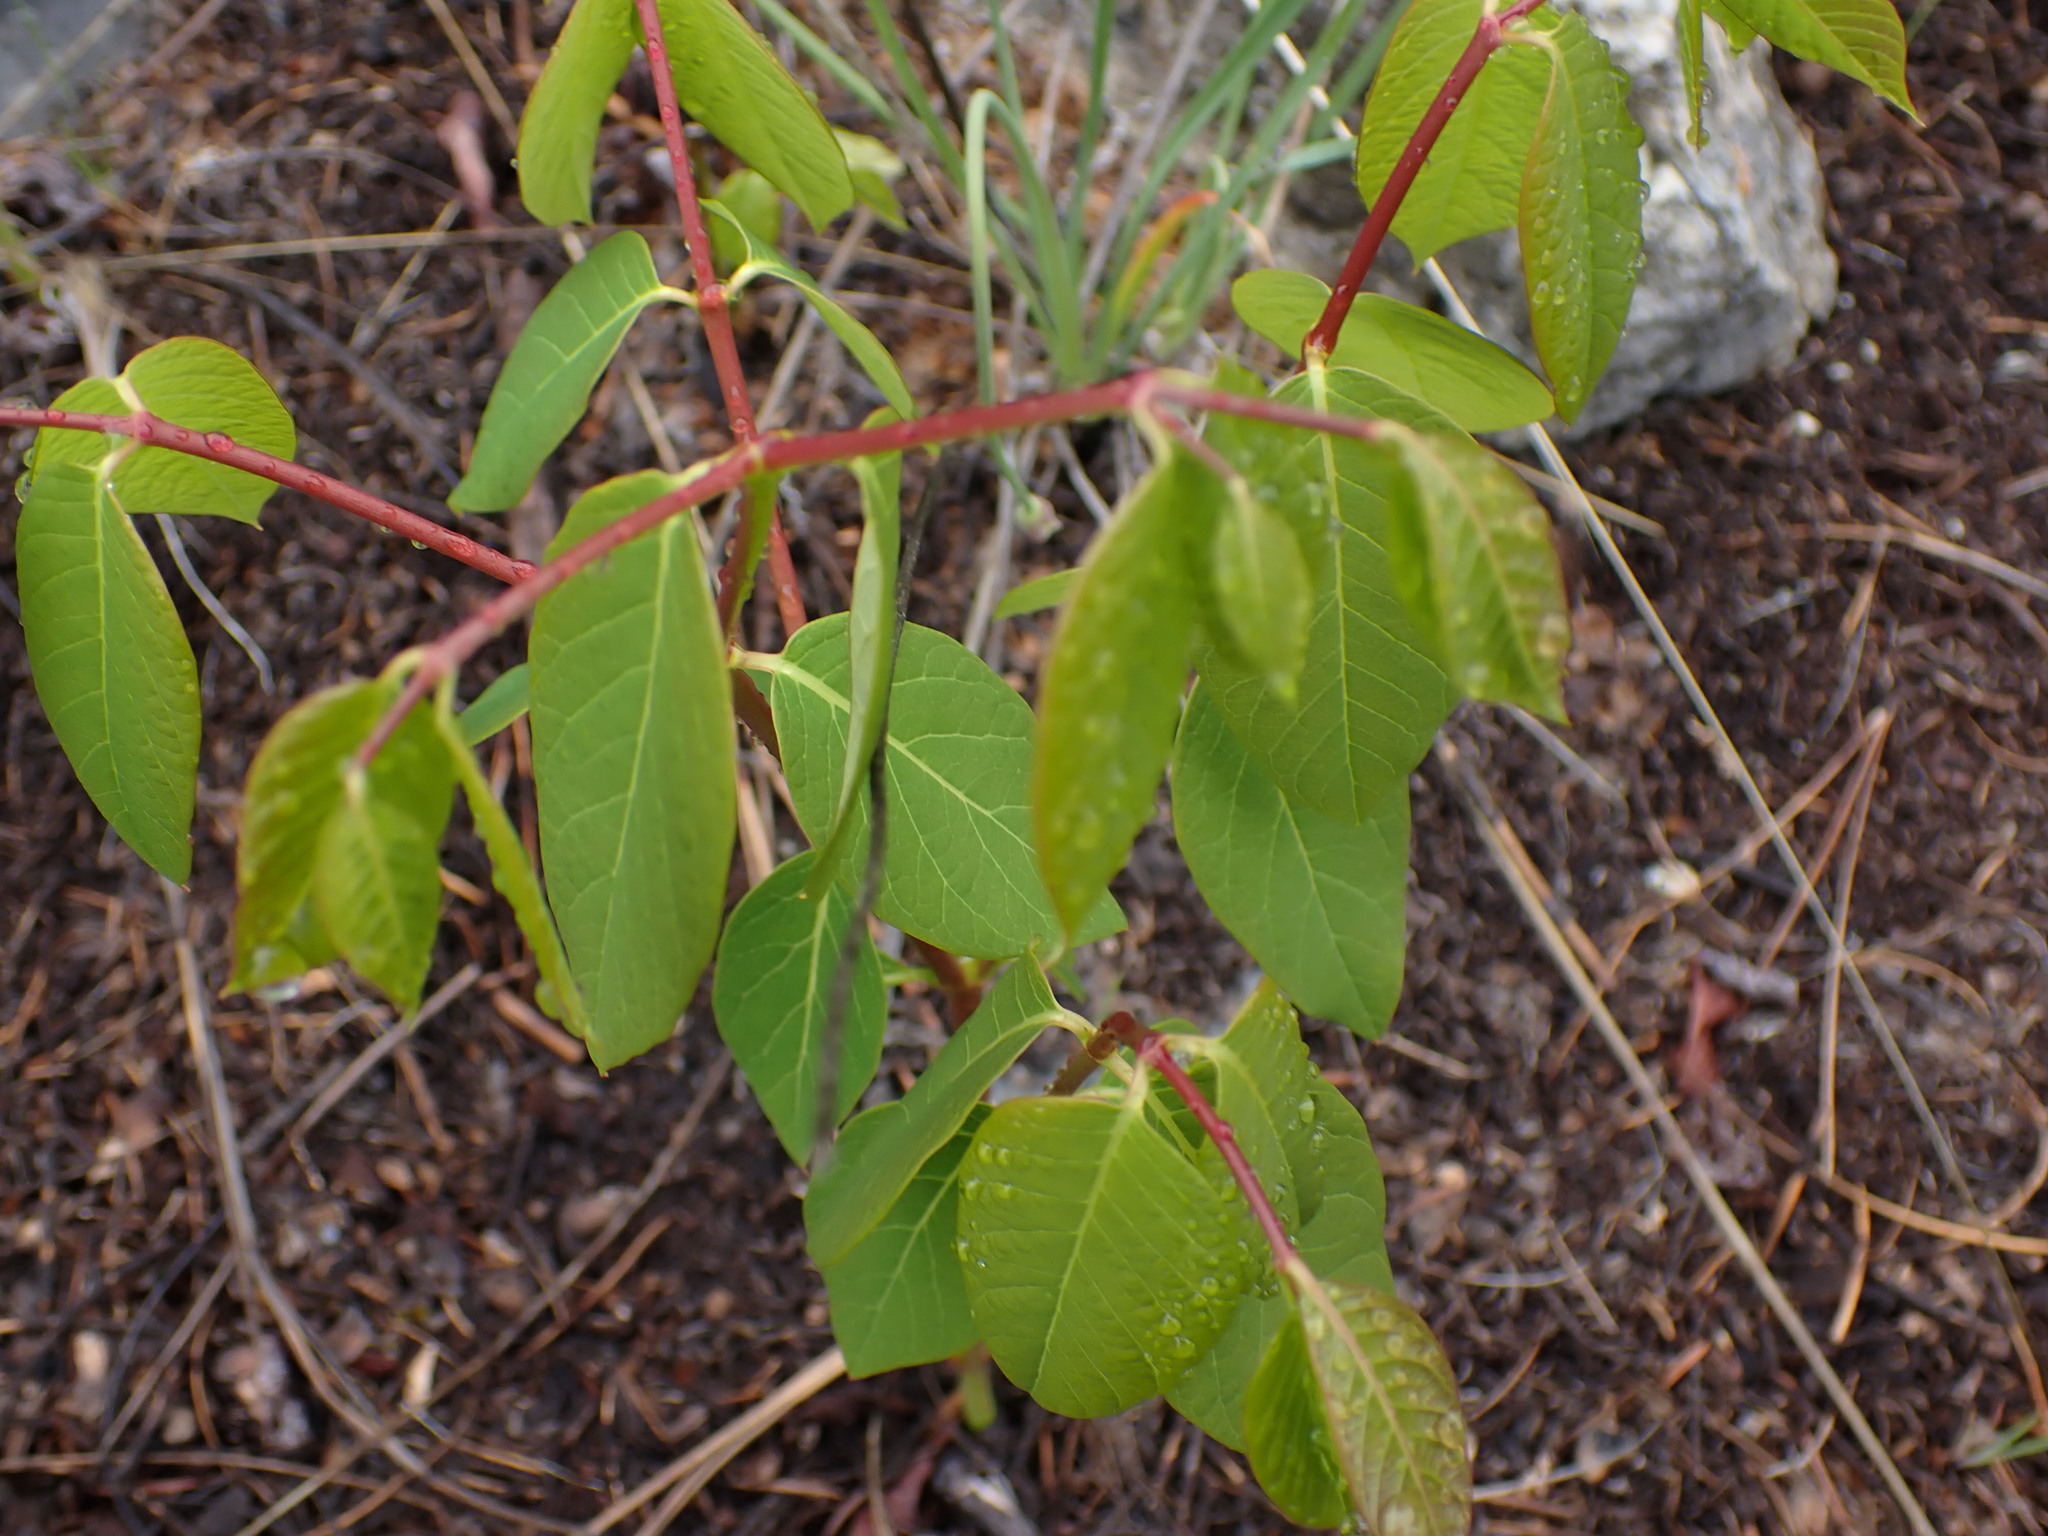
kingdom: Plantae
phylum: Tracheophyta
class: Magnoliopsida
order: Gentianales
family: Apocynaceae
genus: Apocynum
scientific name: Apocynum androsaemifolium
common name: Spreading dogbane
